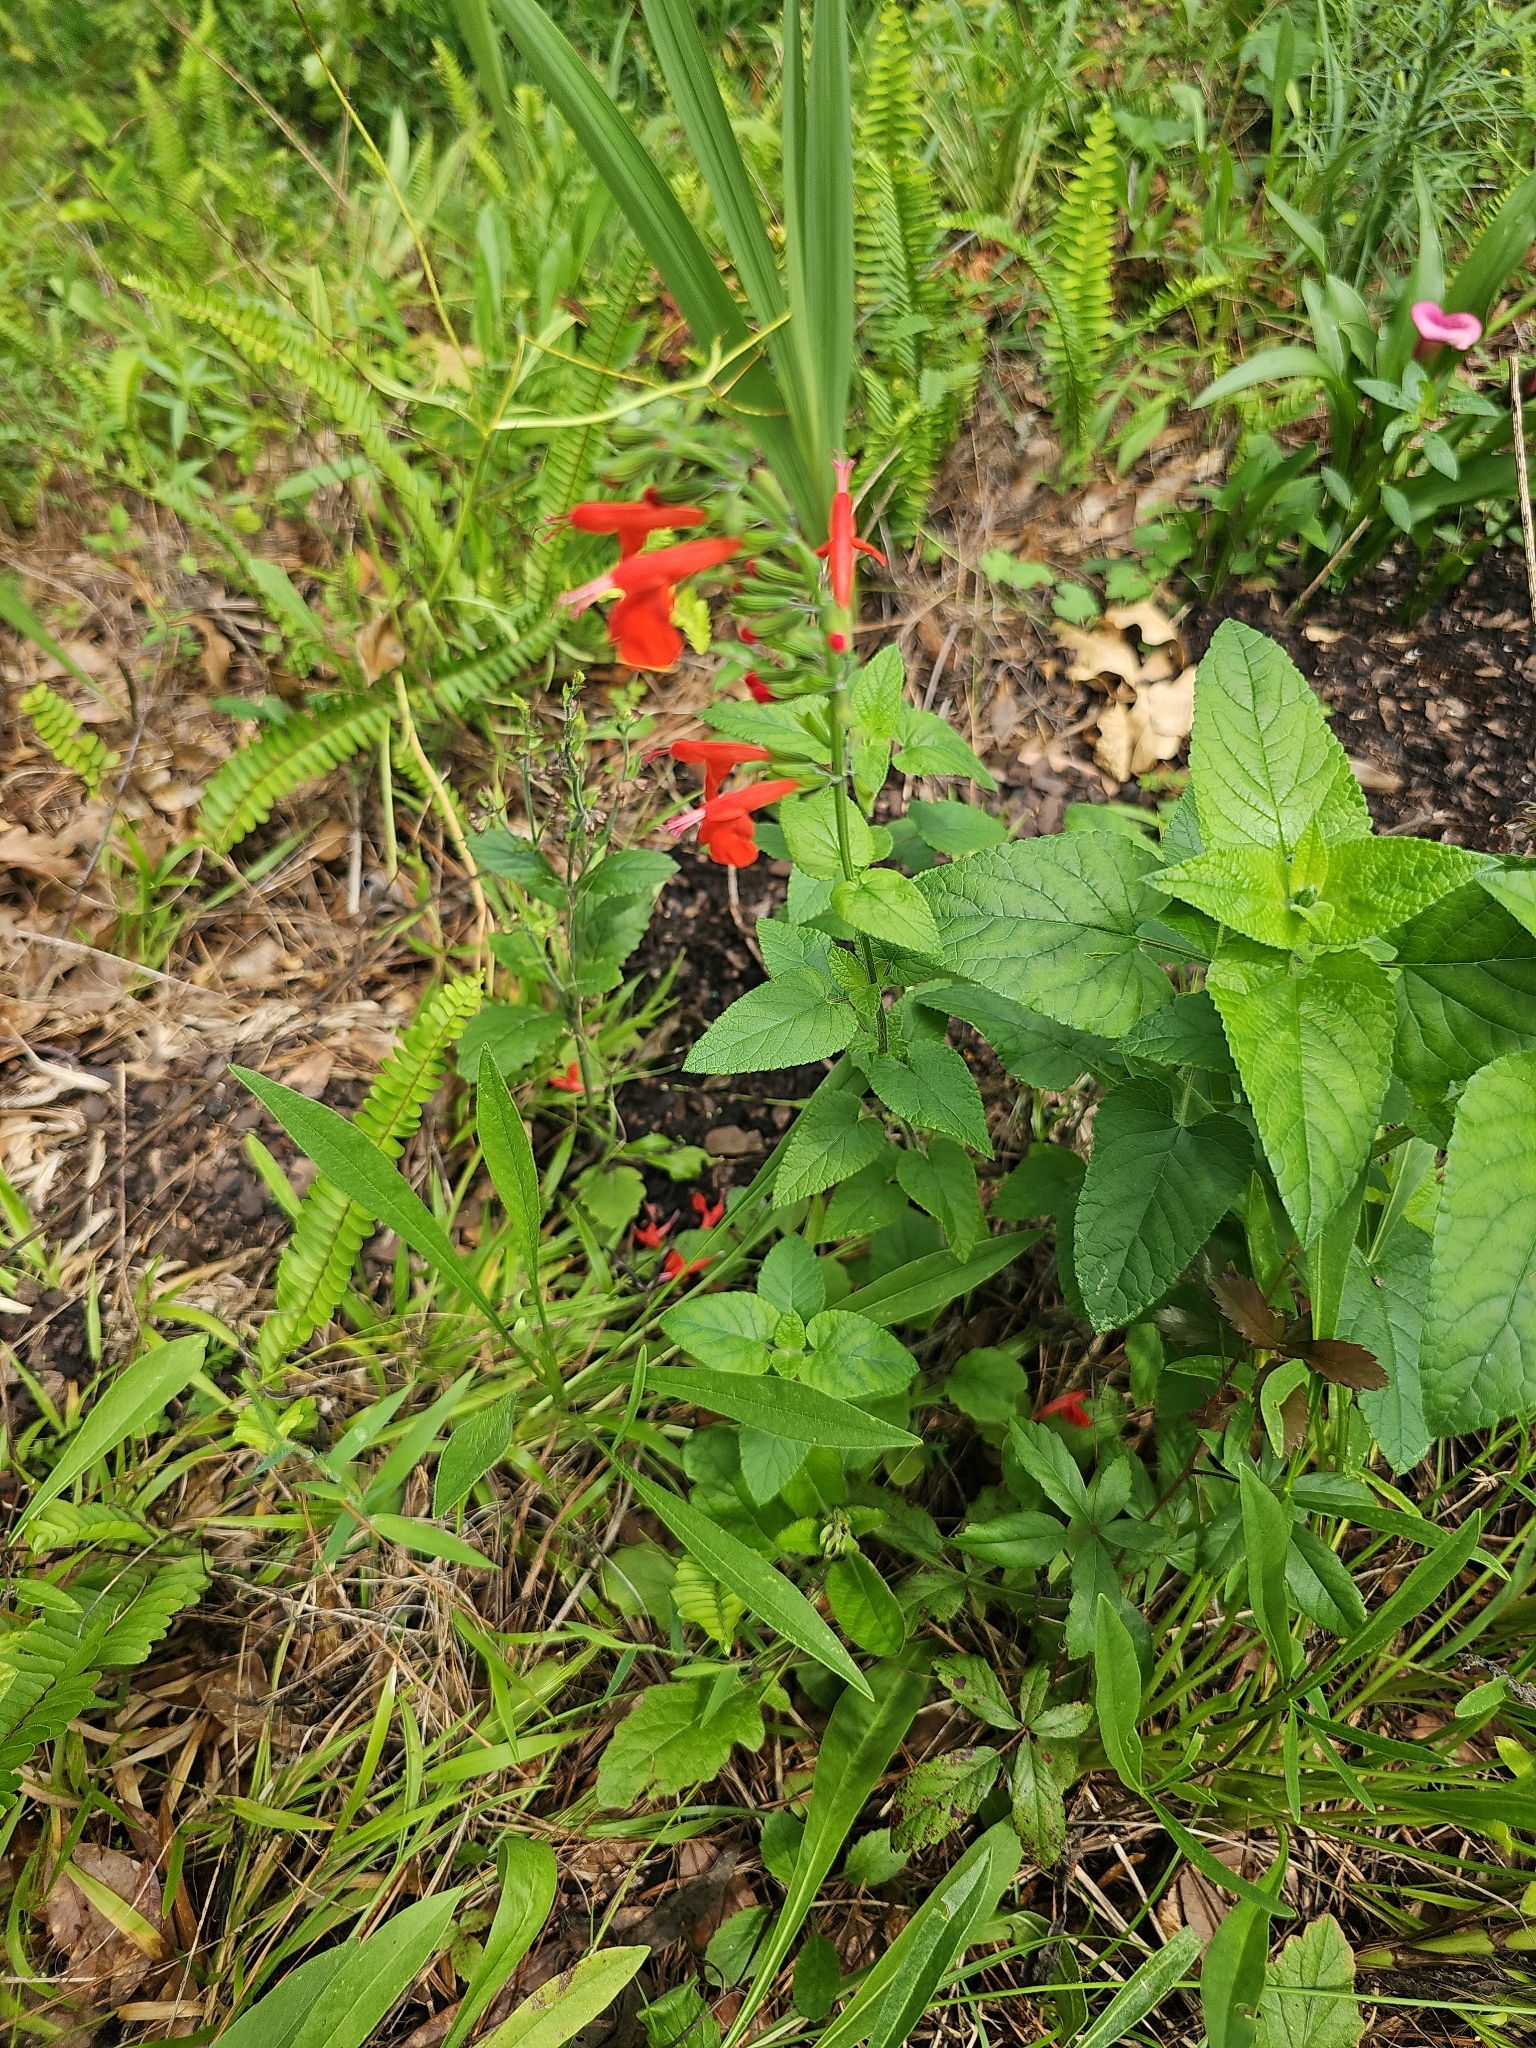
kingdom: Plantae
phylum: Tracheophyta
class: Magnoliopsida
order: Lamiales
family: Lamiaceae
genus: Salvia
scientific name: Salvia coccinea
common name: Blood sage
